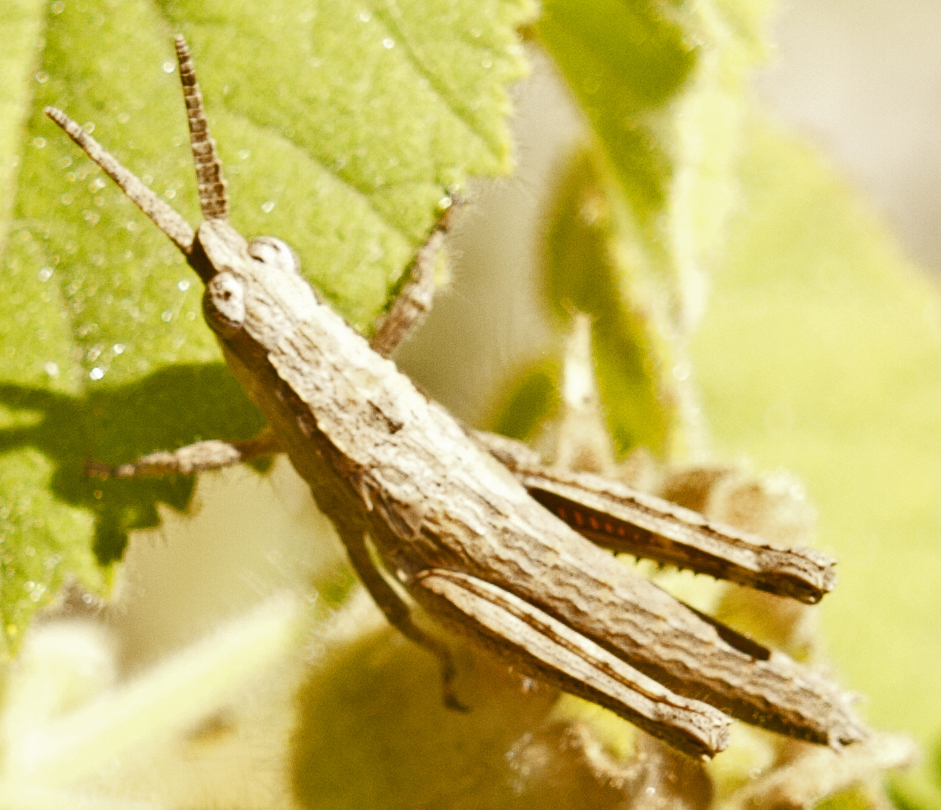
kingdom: Animalia
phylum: Arthropoda
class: Insecta
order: Orthoptera
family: Acrididae
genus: Coryphistes
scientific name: Coryphistes ruricola
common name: Bark-mimicking grasshopper
